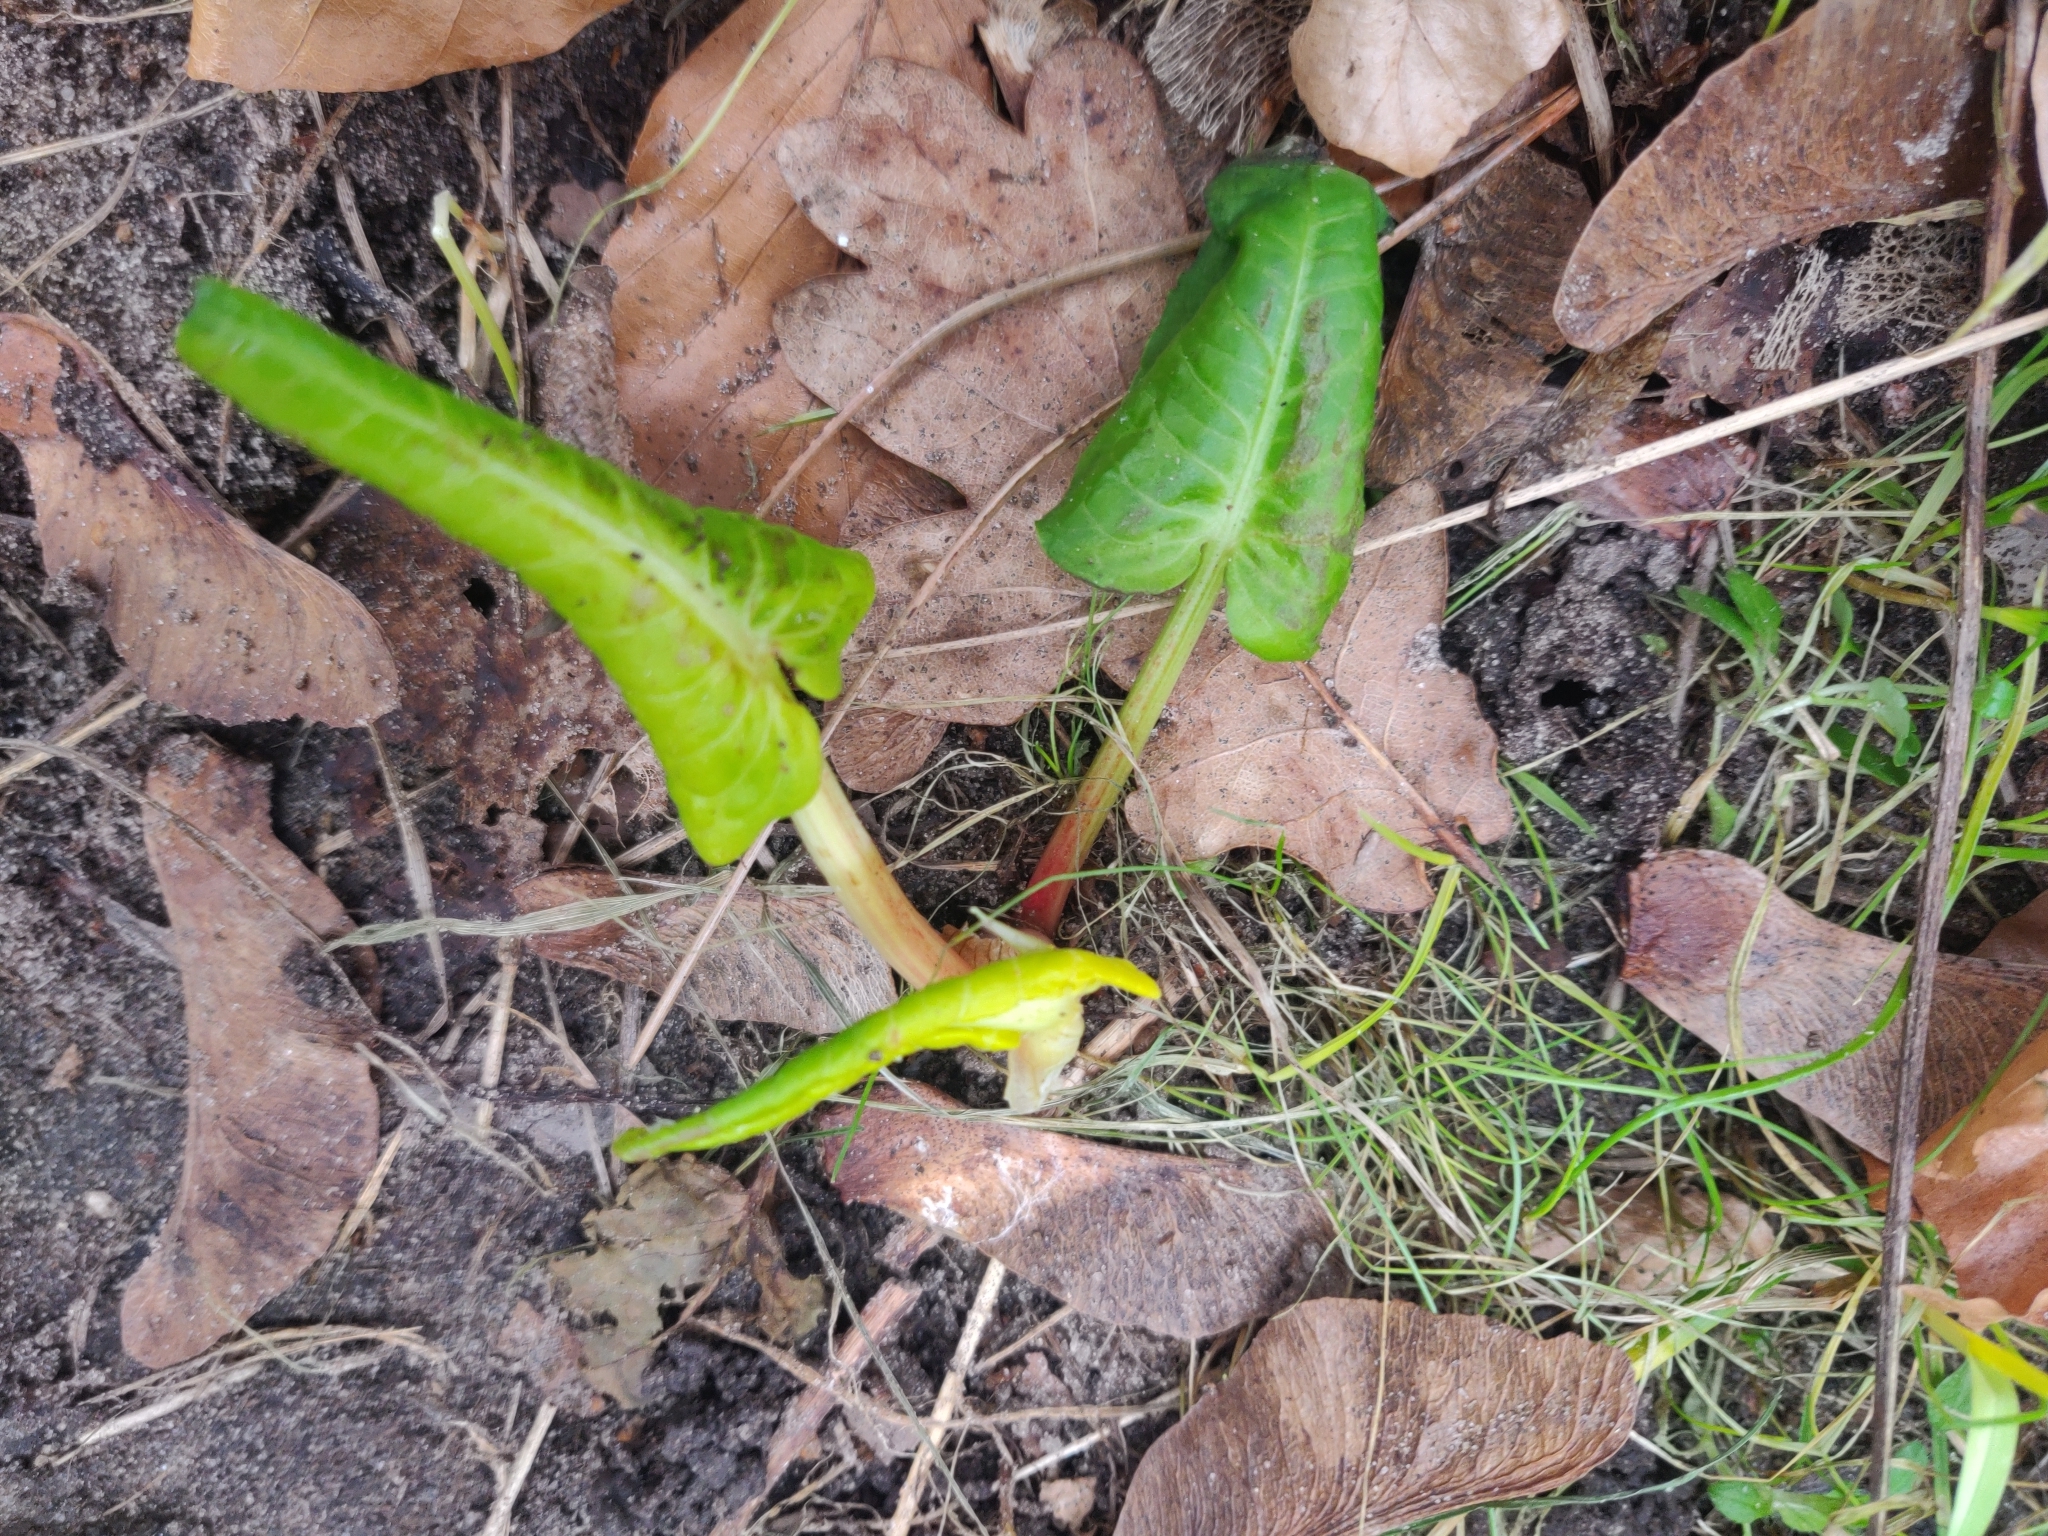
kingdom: Plantae
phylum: Tracheophyta
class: Magnoliopsida
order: Caryophyllales
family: Polygonaceae
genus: Rumex
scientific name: Rumex obtusifolius
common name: Bitter dock
